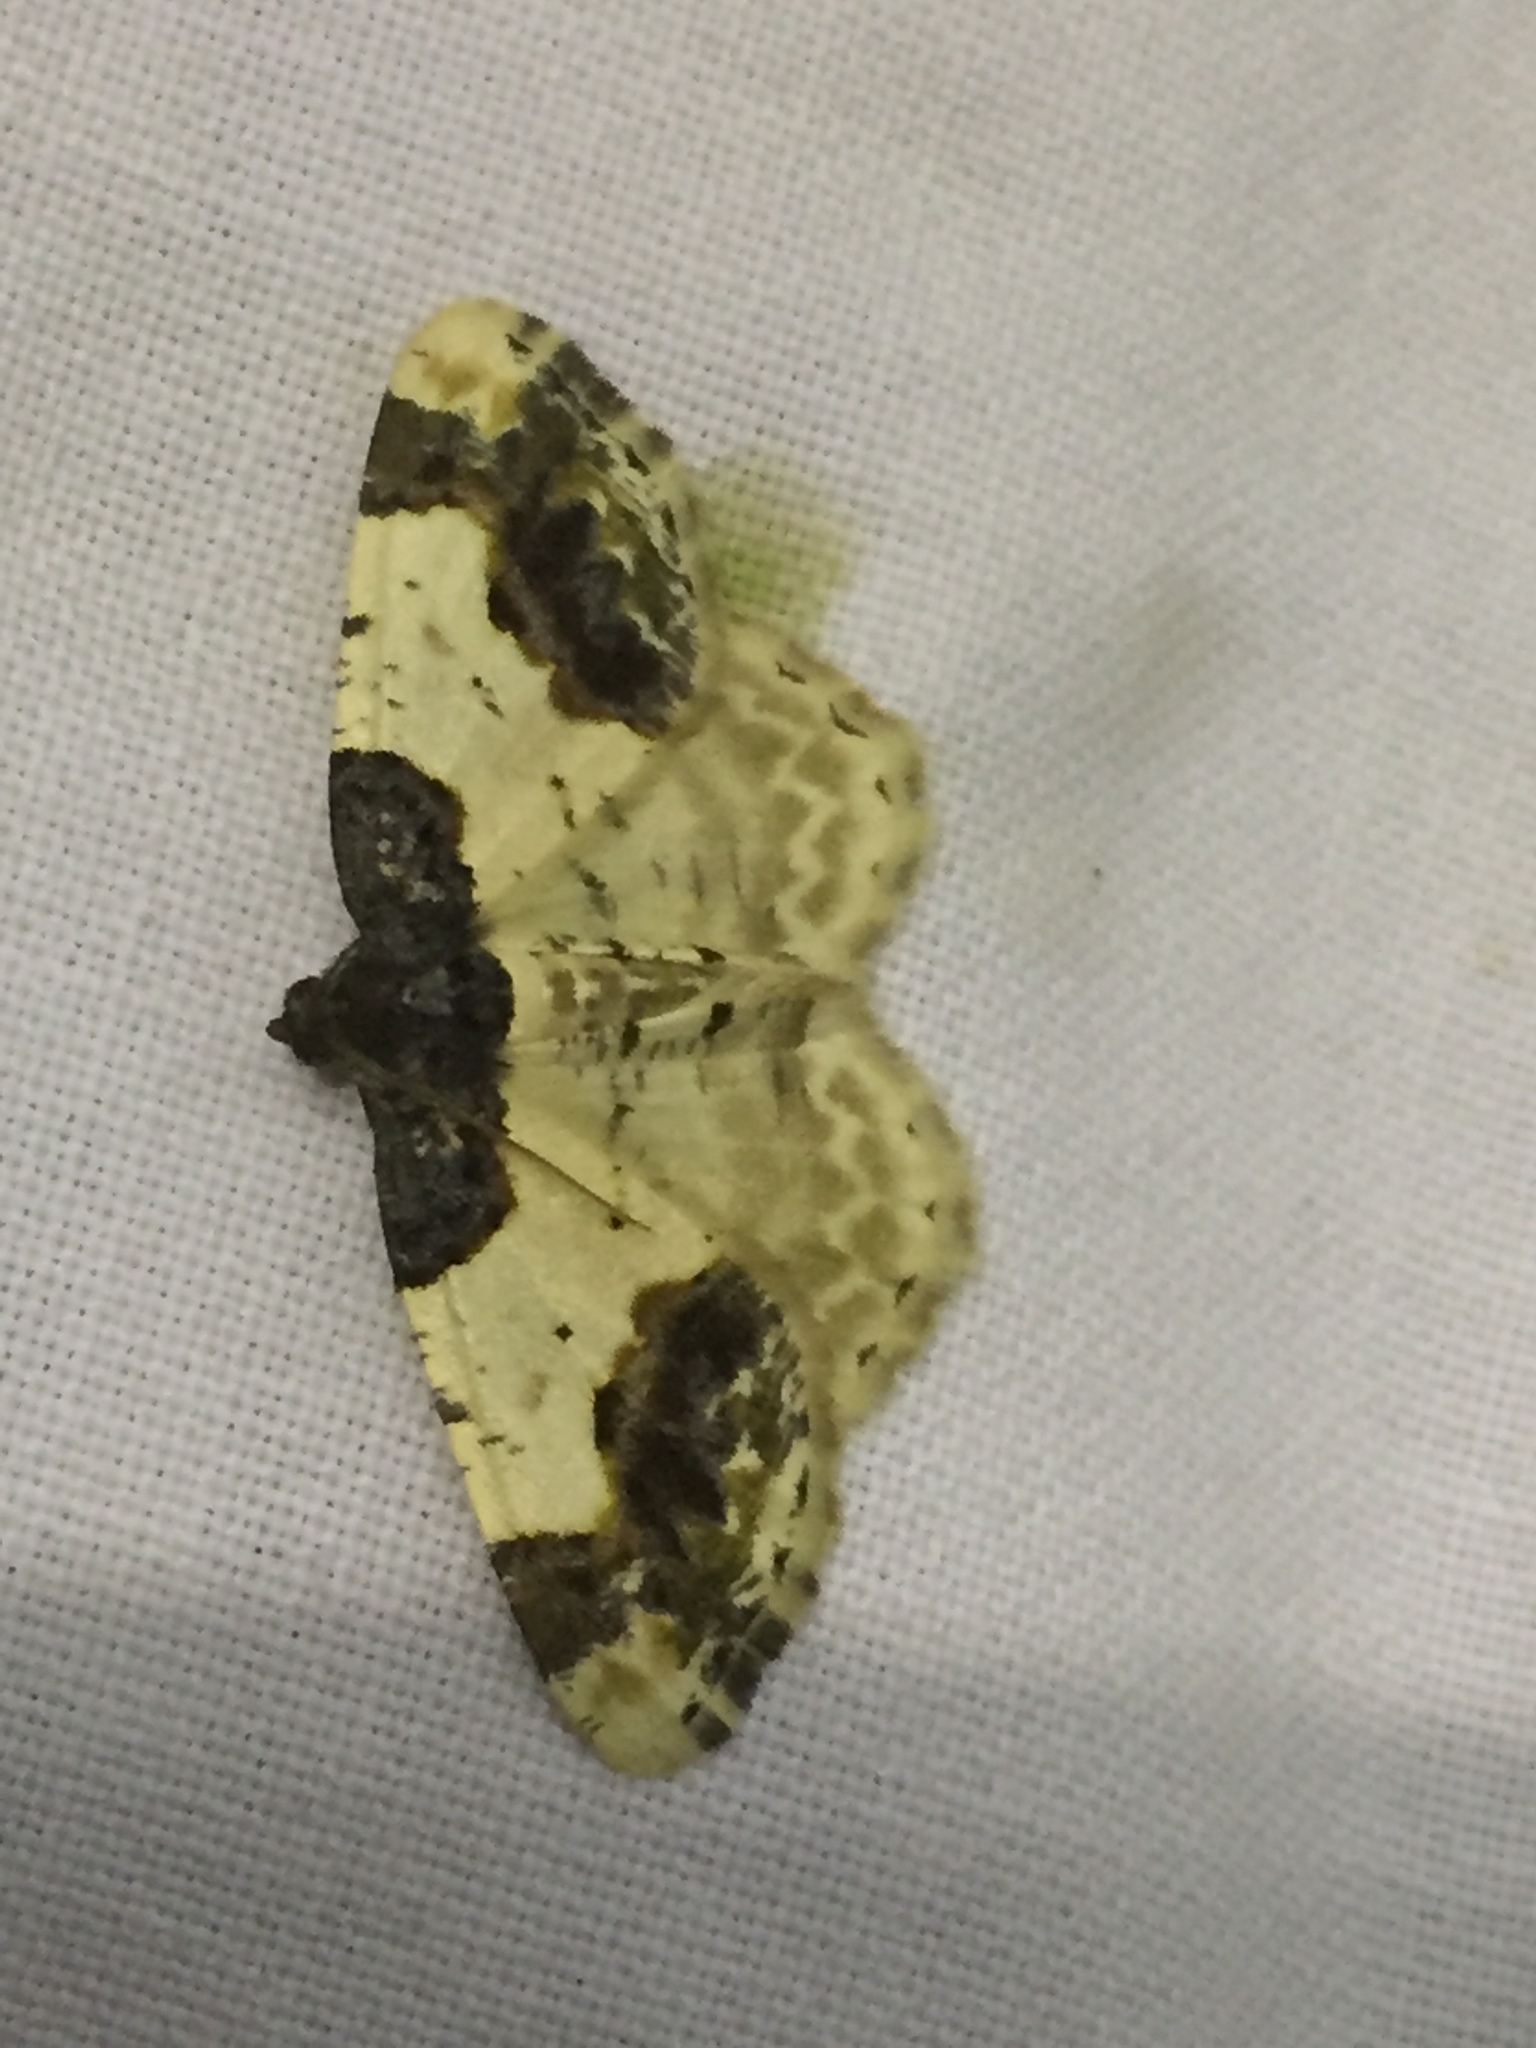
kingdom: Animalia
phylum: Arthropoda
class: Insecta
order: Lepidoptera
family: Geometridae
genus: Ligdia
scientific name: Ligdia adustata
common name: Scorched carpet
